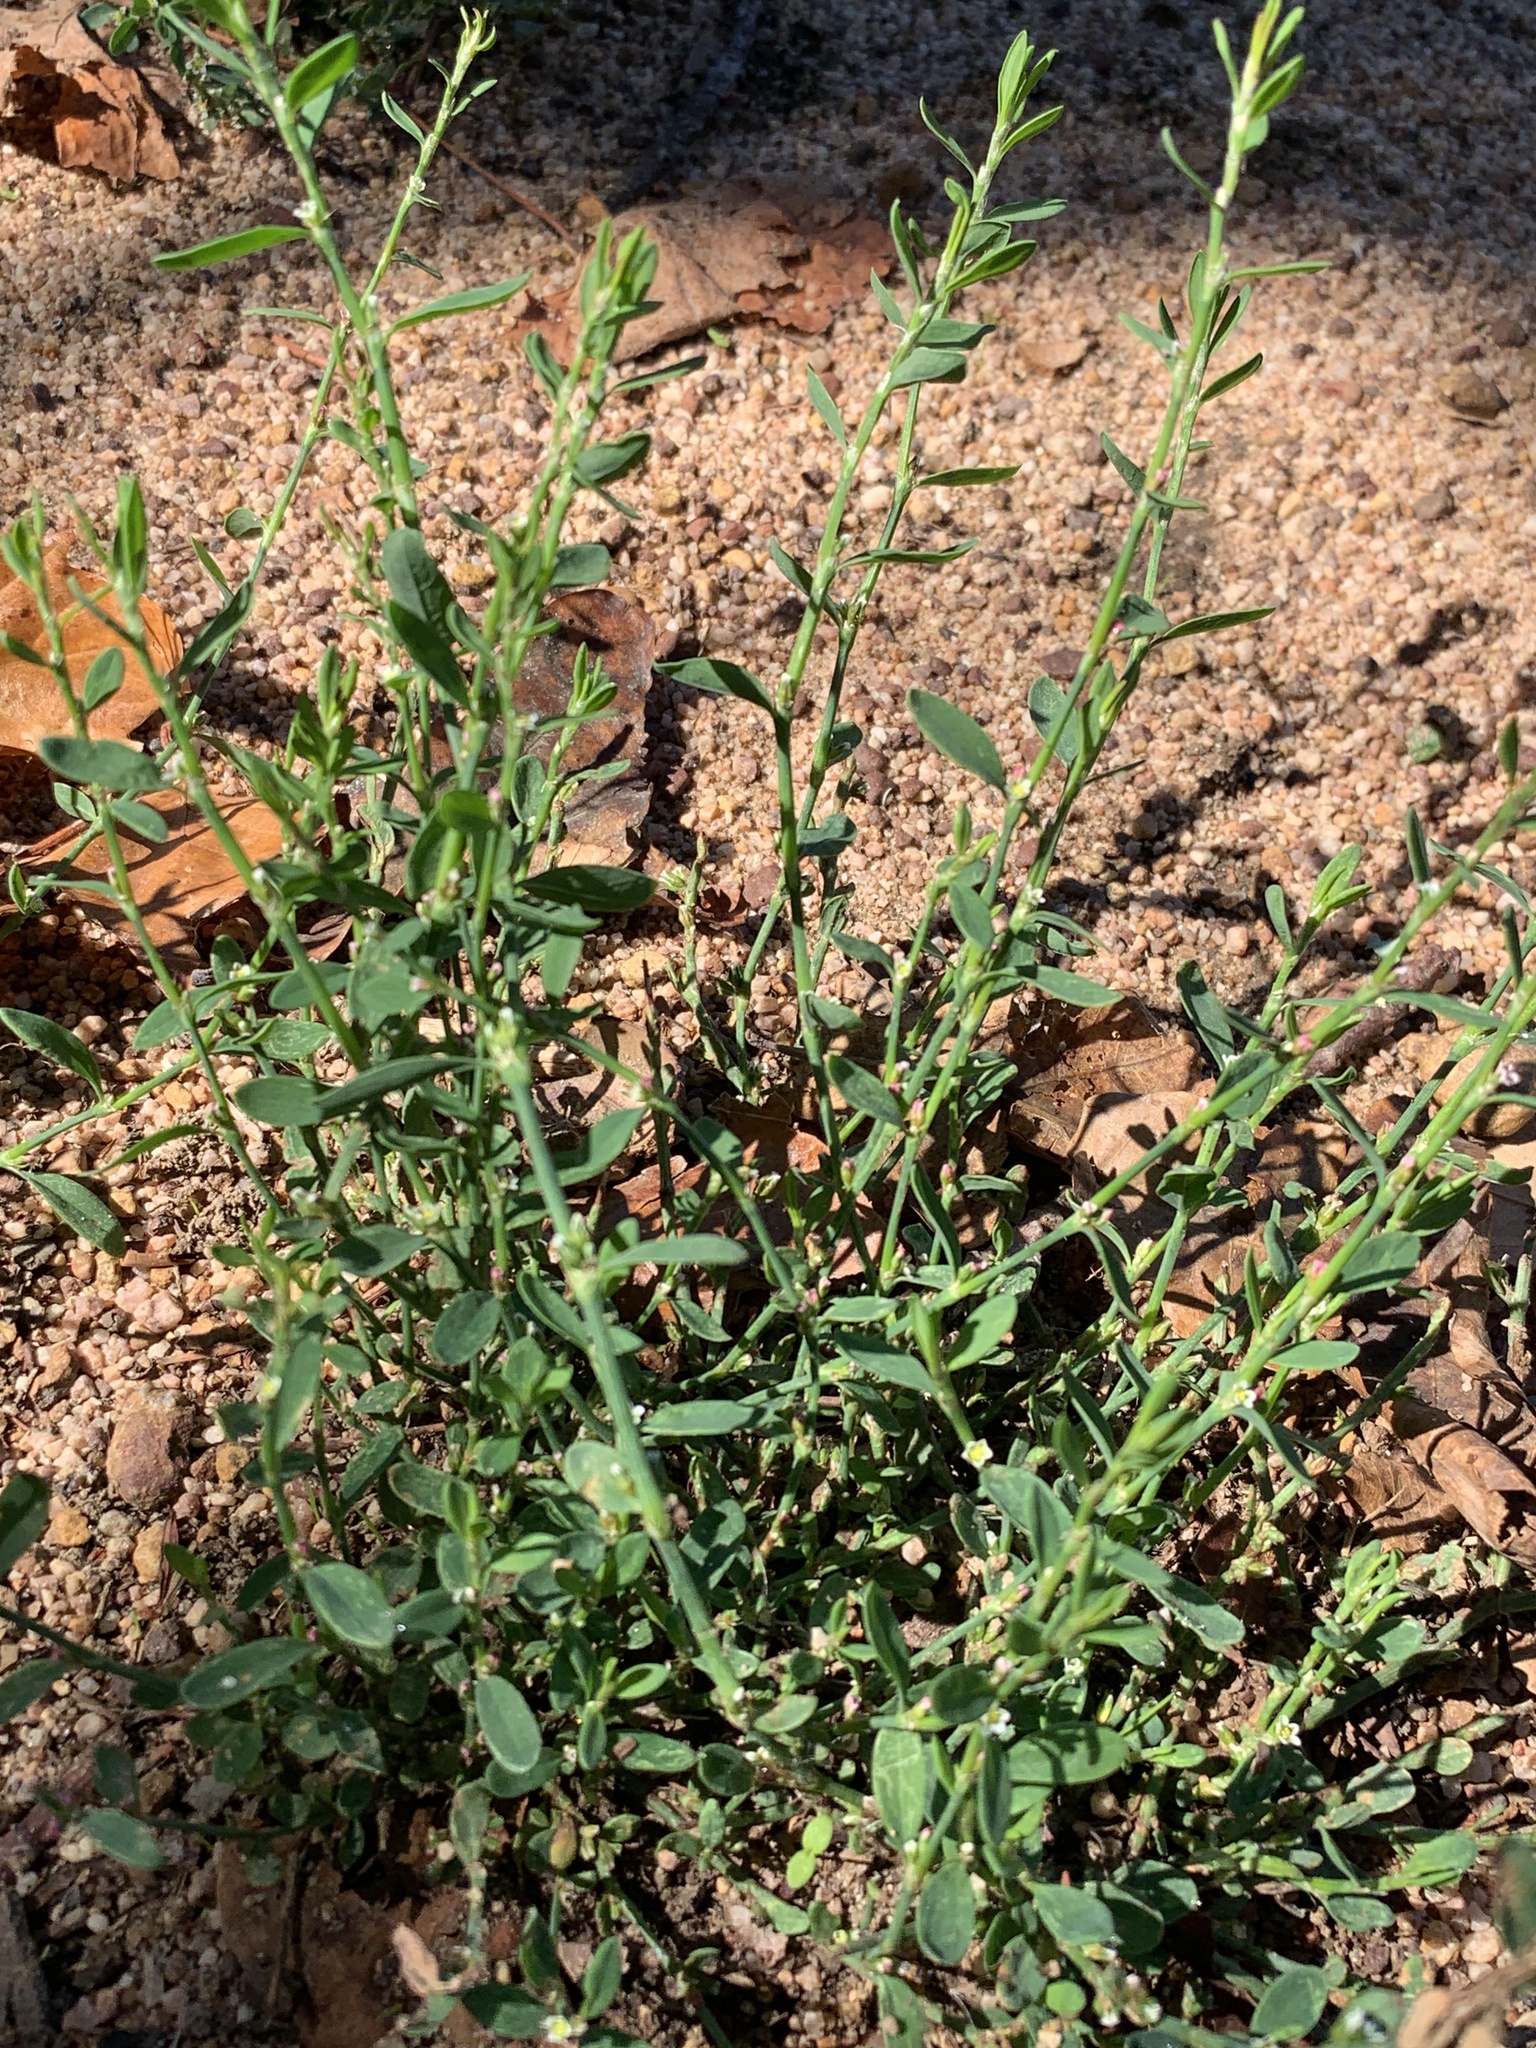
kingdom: Plantae
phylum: Tracheophyta
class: Magnoliopsida
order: Caryophyllales
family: Polygonaceae
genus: Polygonum
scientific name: Polygonum aviculare
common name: Prostrate knotweed
